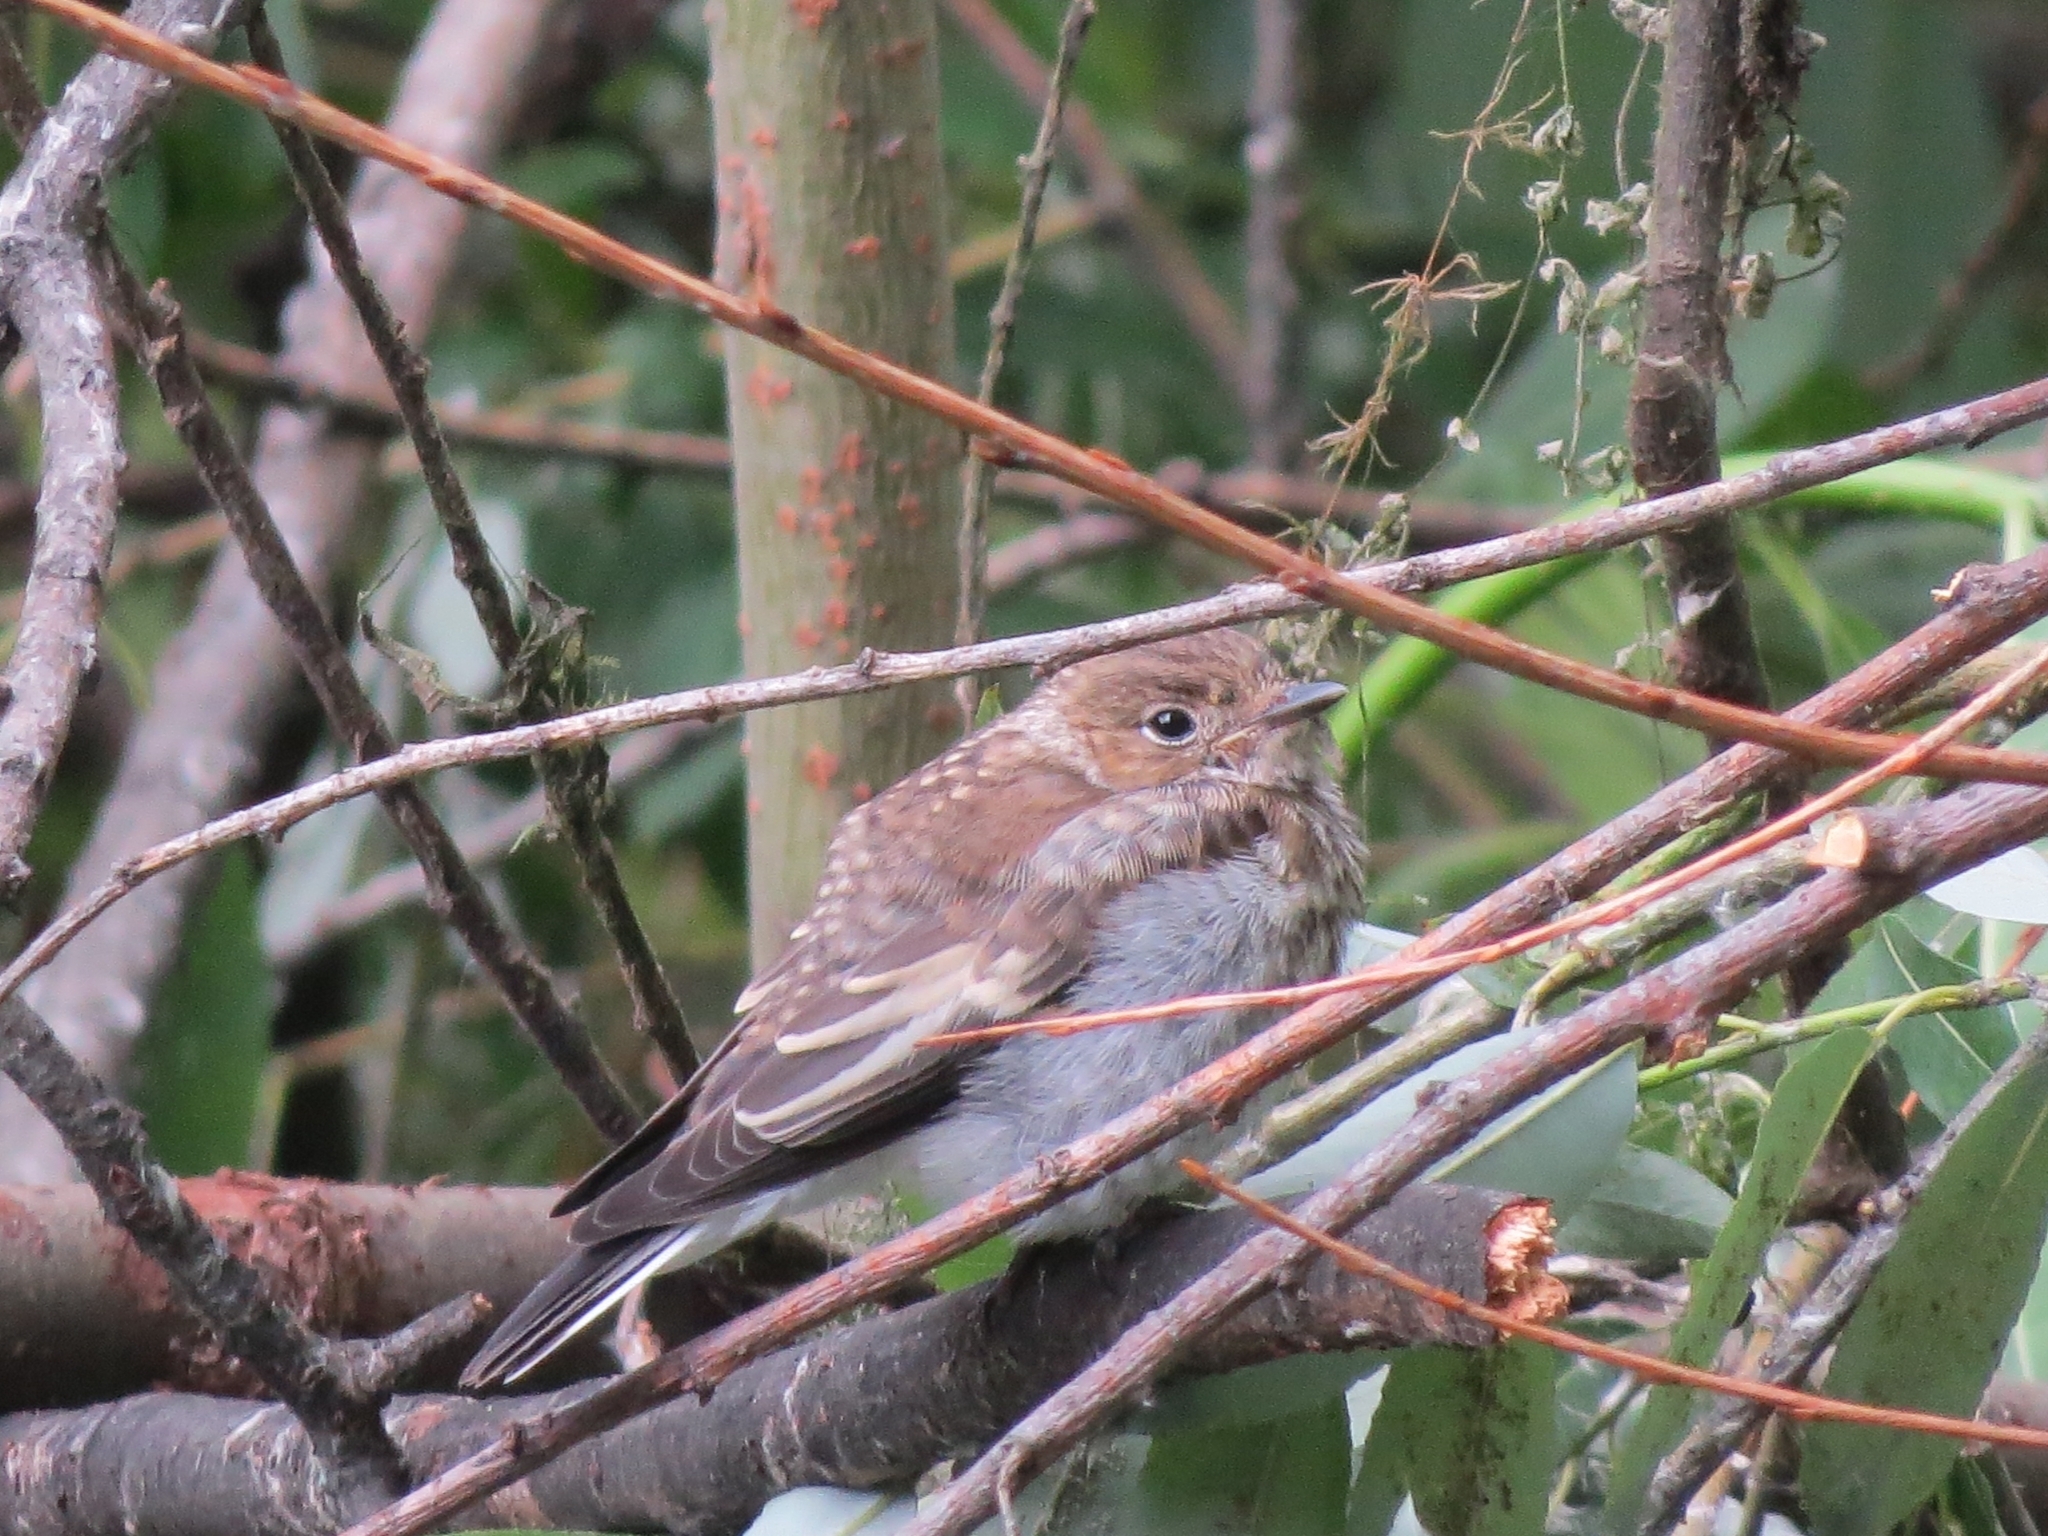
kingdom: Animalia
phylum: Chordata
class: Aves
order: Passeriformes
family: Muscicapidae
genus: Ficedula
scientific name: Ficedula hypoleuca
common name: European pied flycatcher
